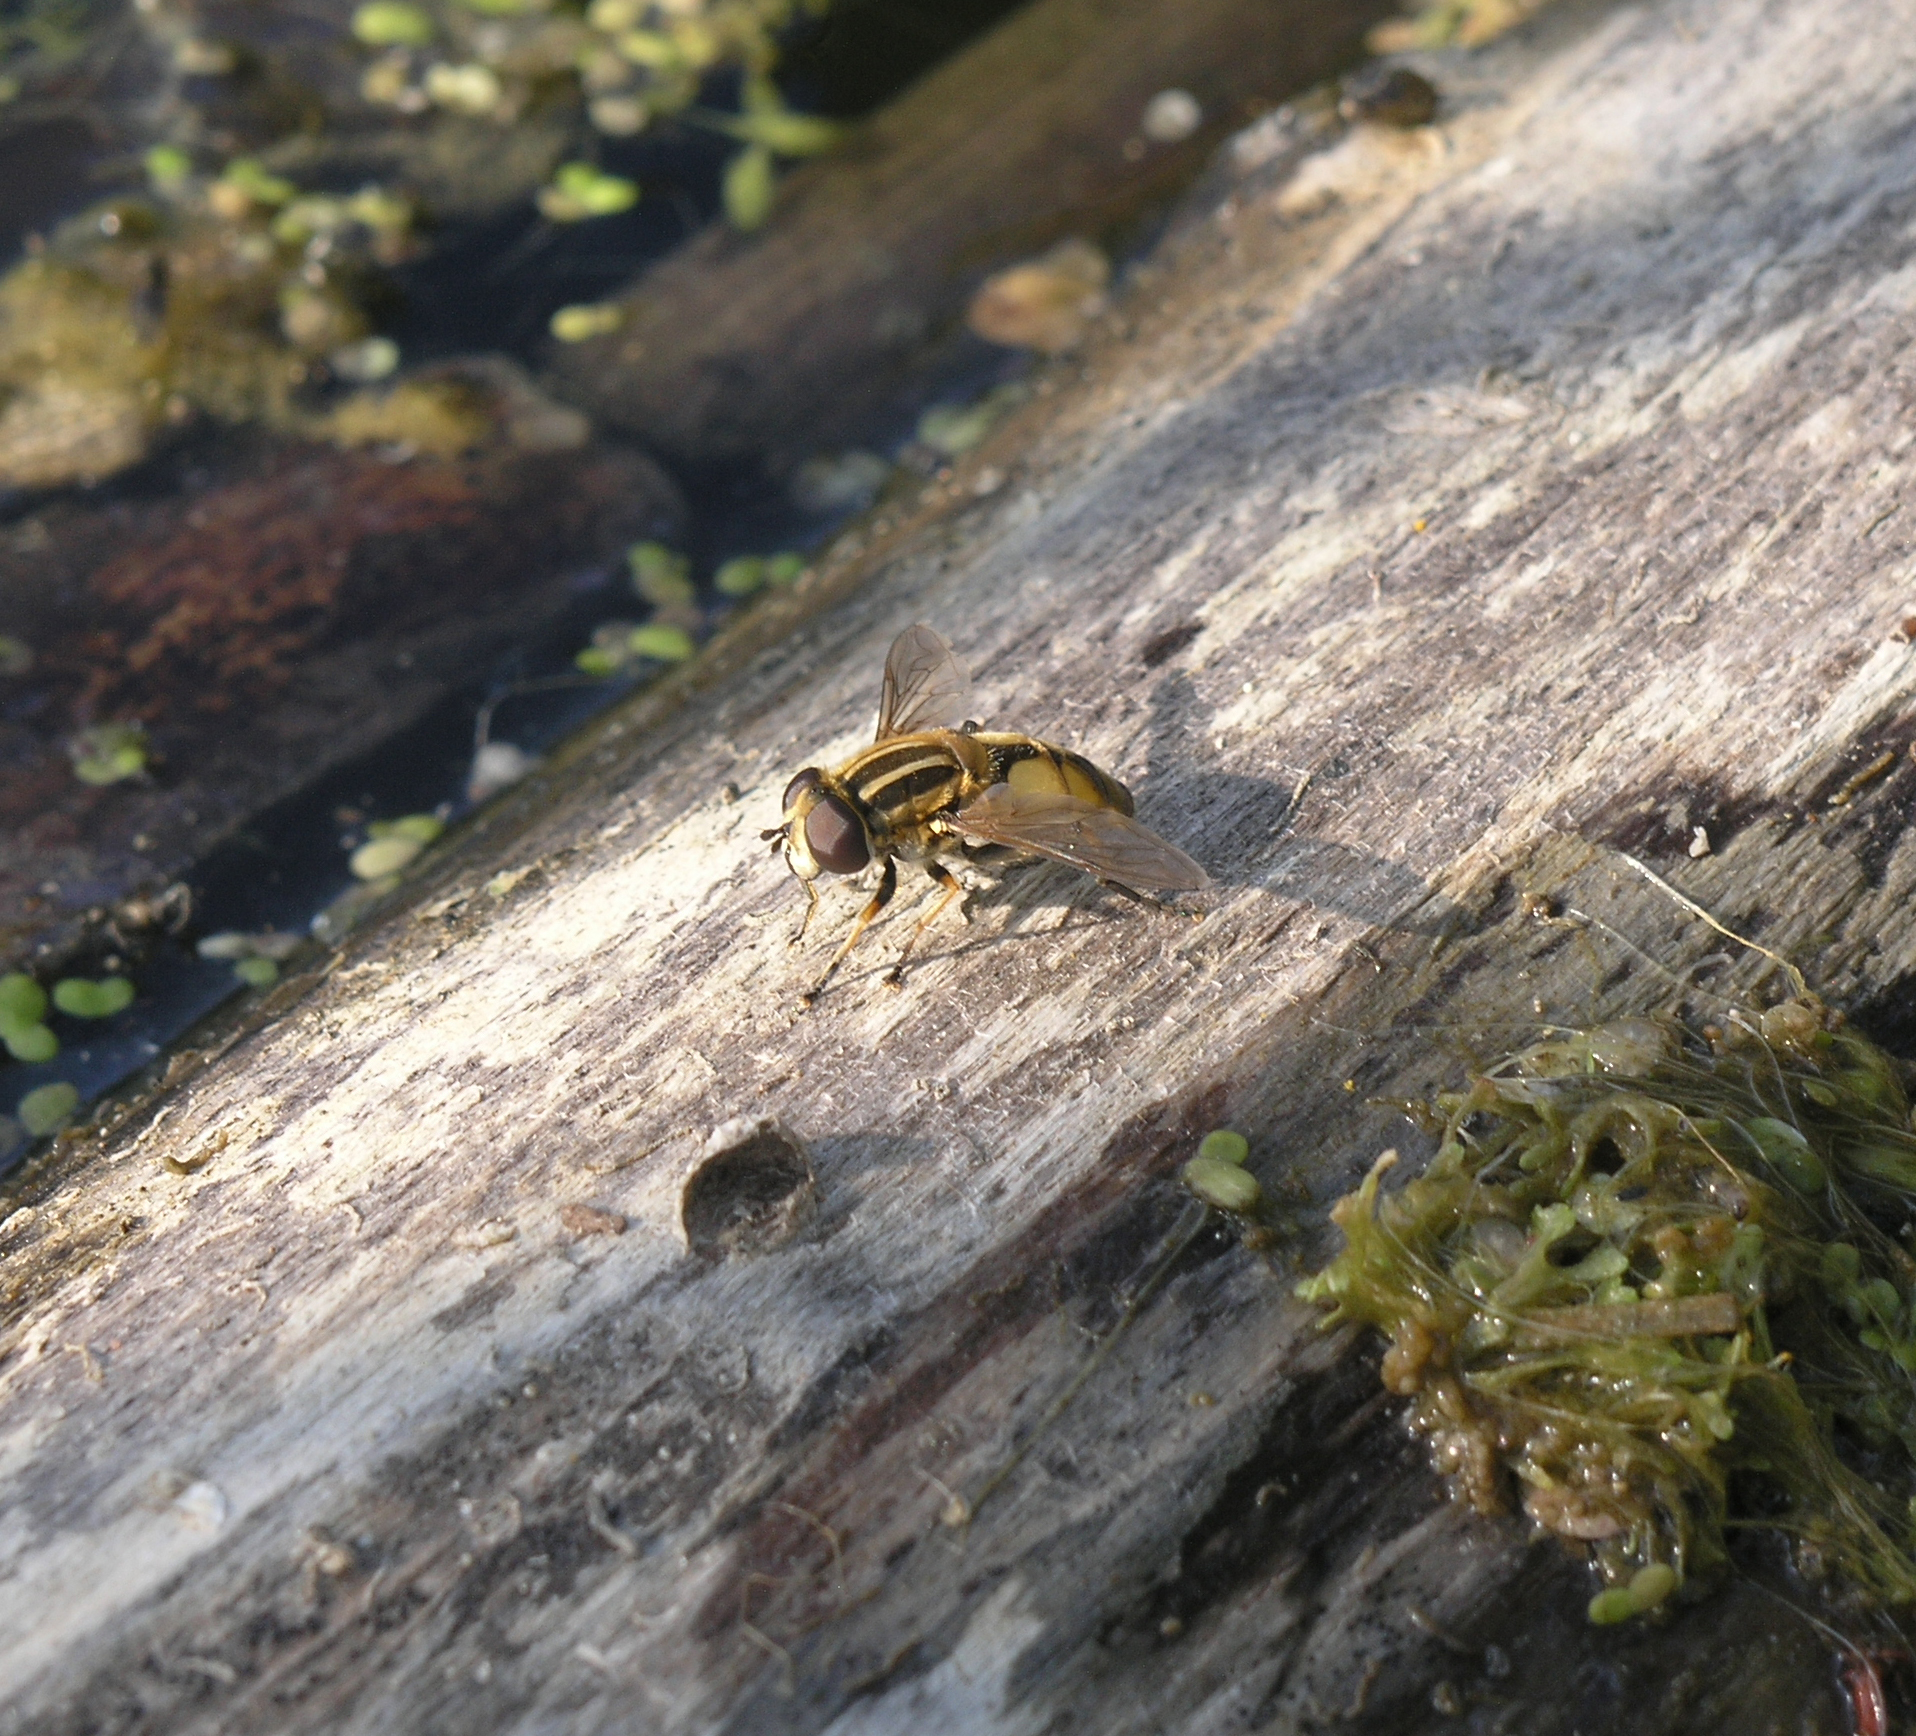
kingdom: Animalia
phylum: Arthropoda
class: Insecta
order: Diptera
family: Syrphidae
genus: Helophilus
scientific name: Helophilus hybridus
